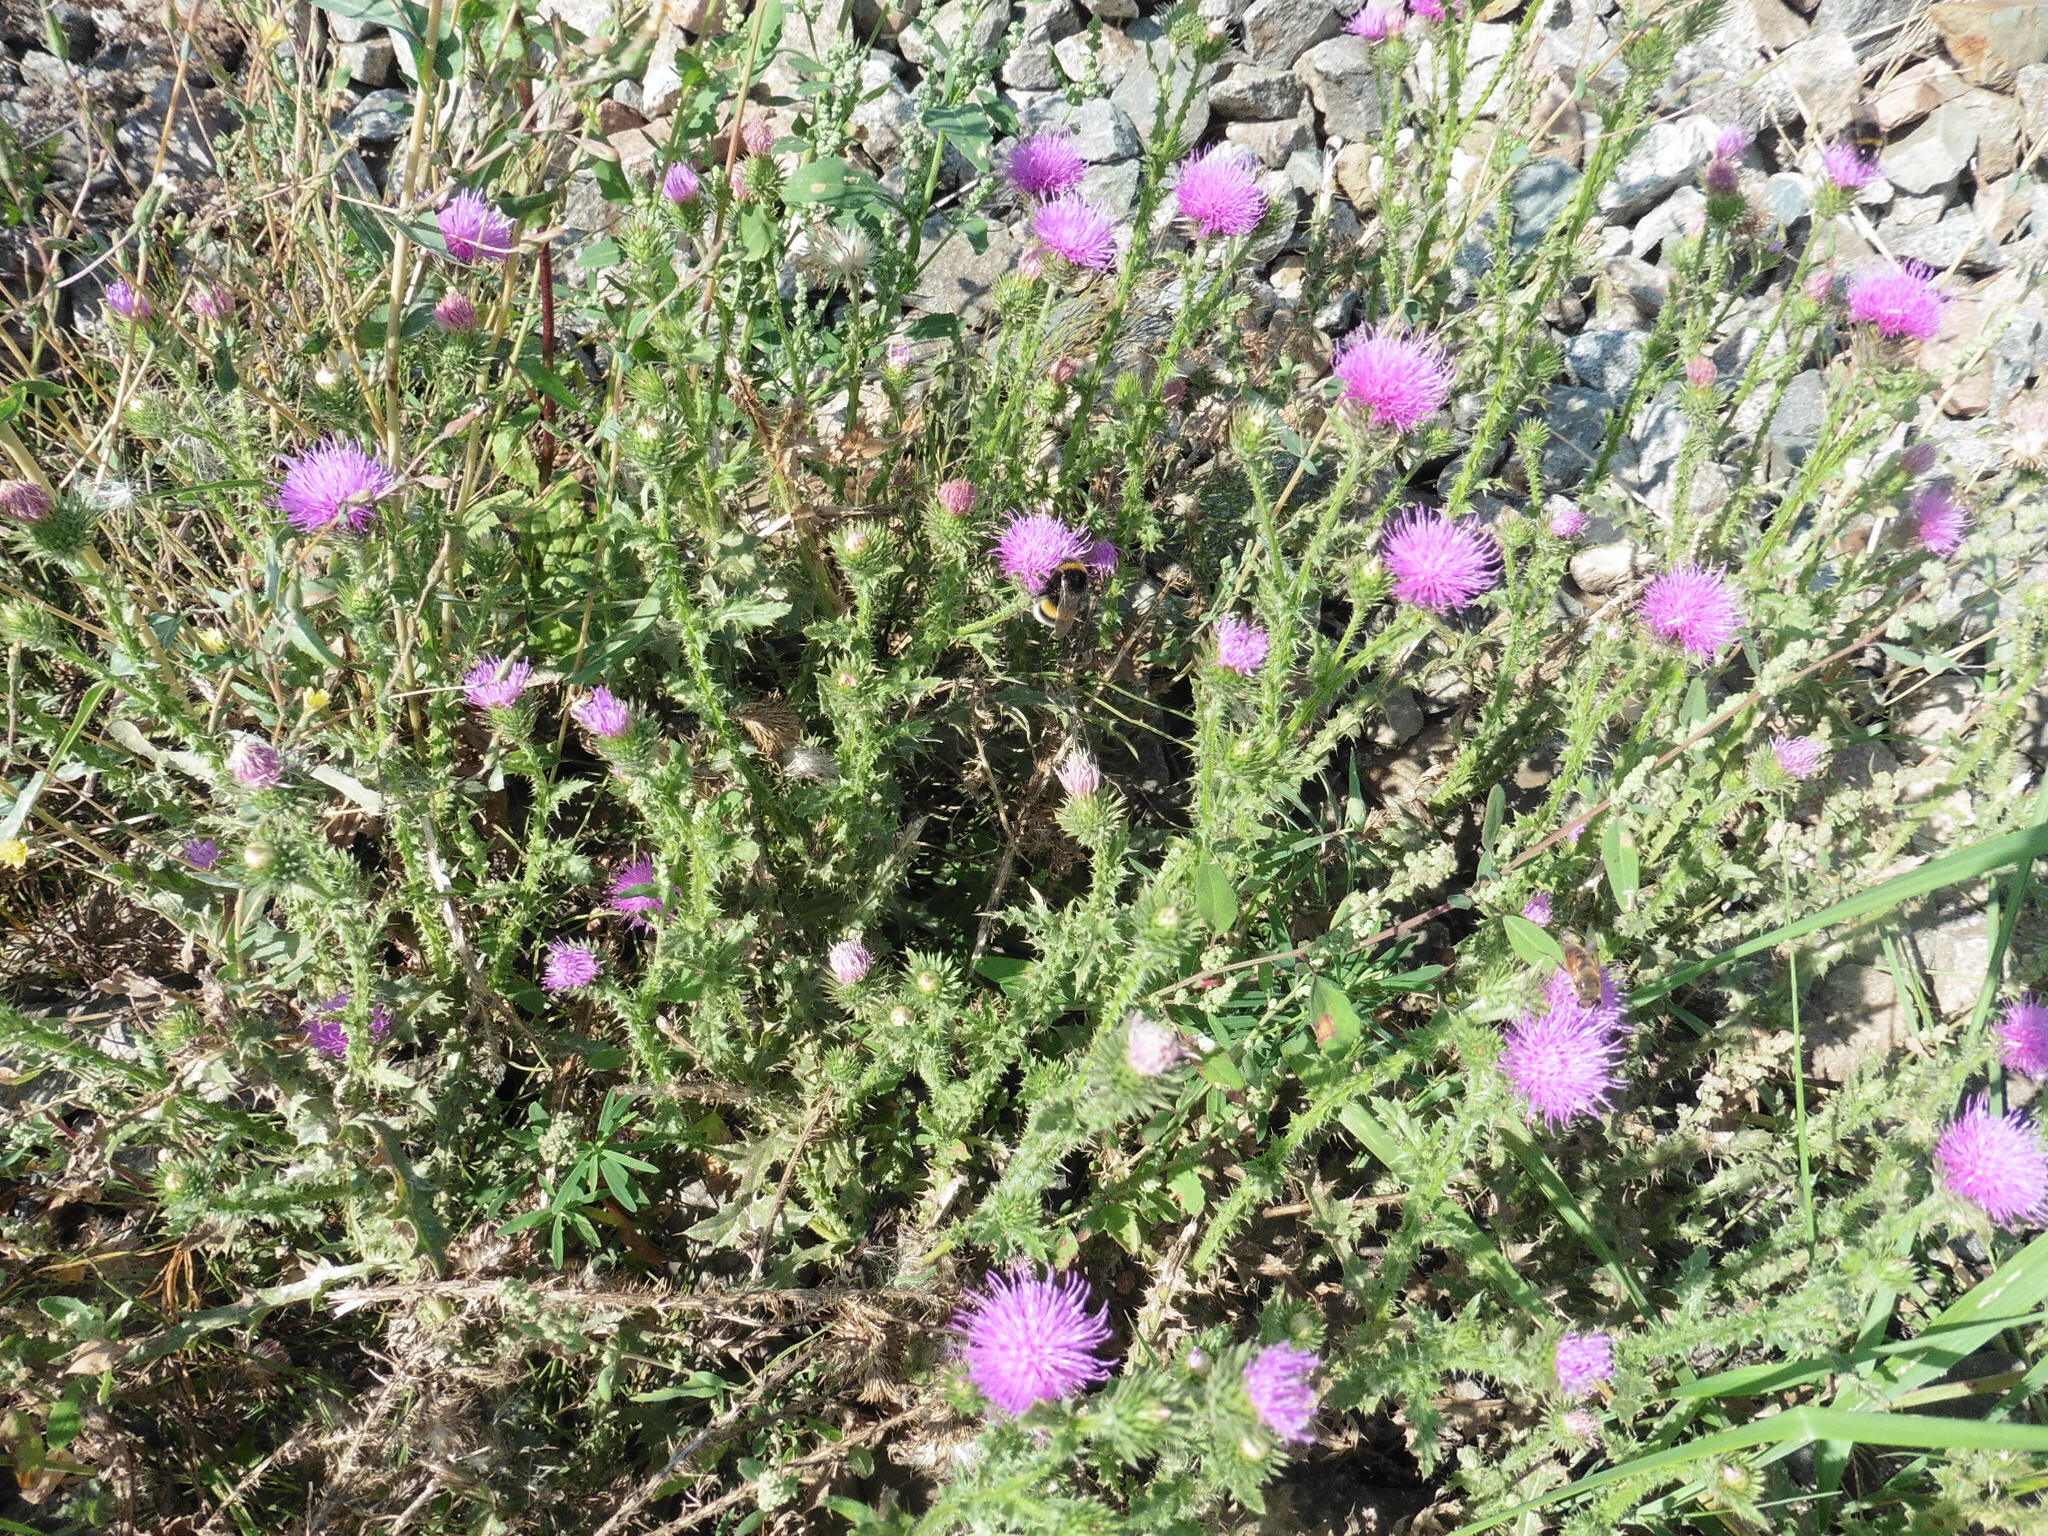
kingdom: Plantae
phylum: Tracheophyta
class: Magnoliopsida
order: Asterales
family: Asteraceae
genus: Carduus
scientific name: Carduus acanthoides
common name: Plumeless thistle
